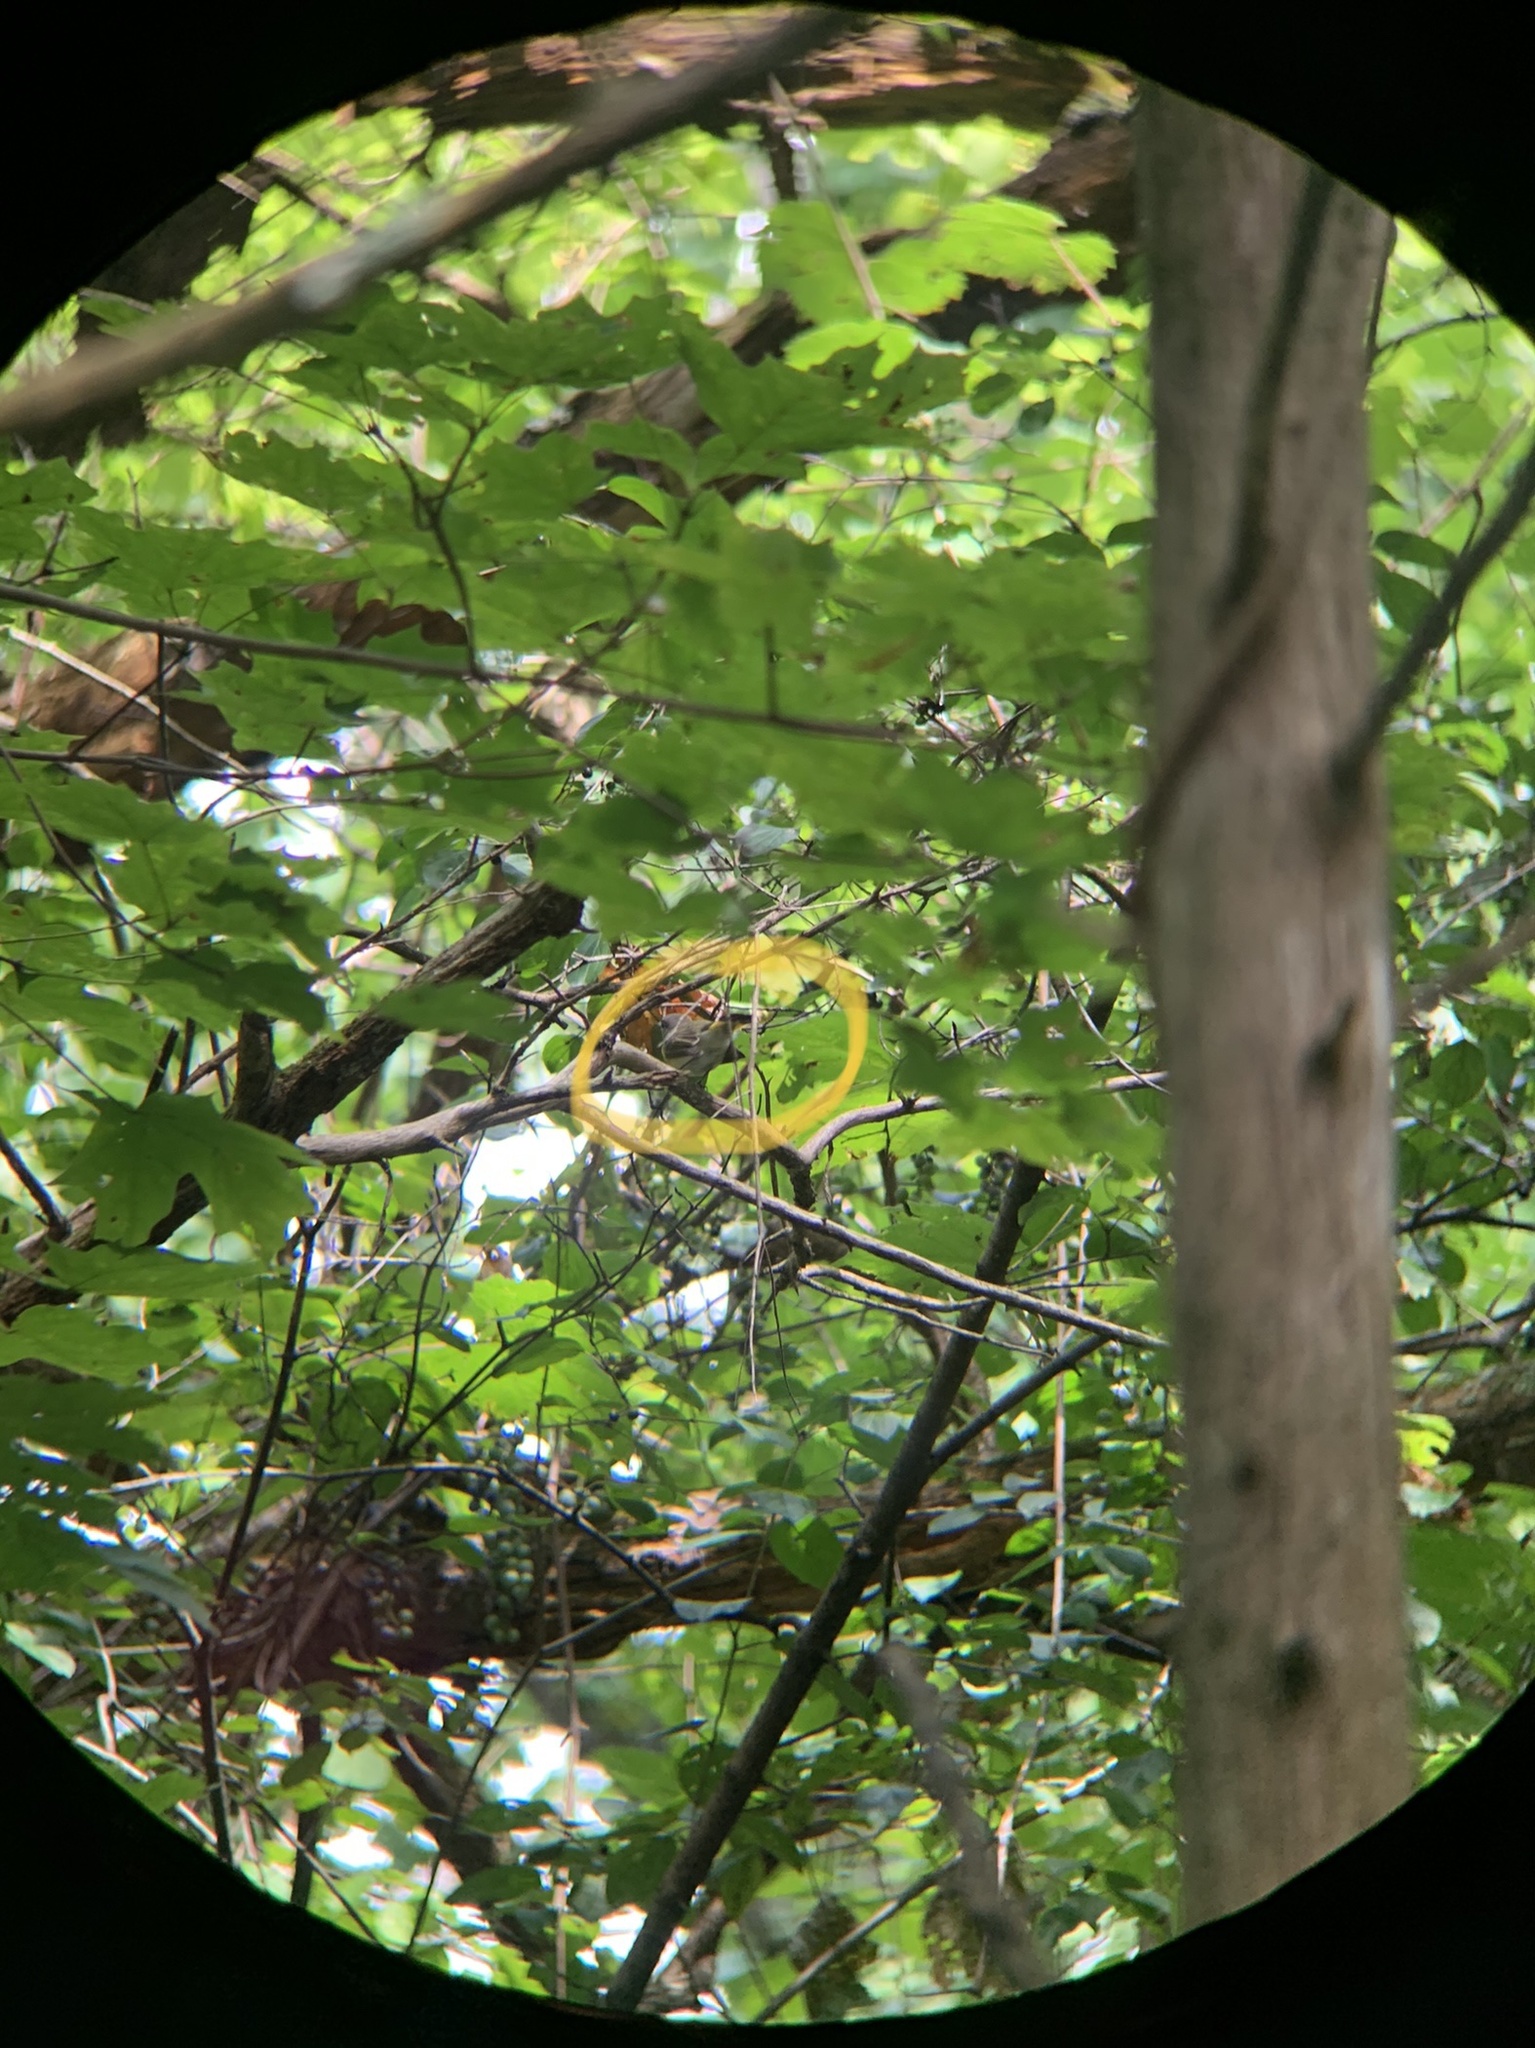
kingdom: Animalia
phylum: Chordata
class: Aves
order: Passeriformes
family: Parulidae
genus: Setophaga
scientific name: Setophaga ruticilla
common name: American redstart
